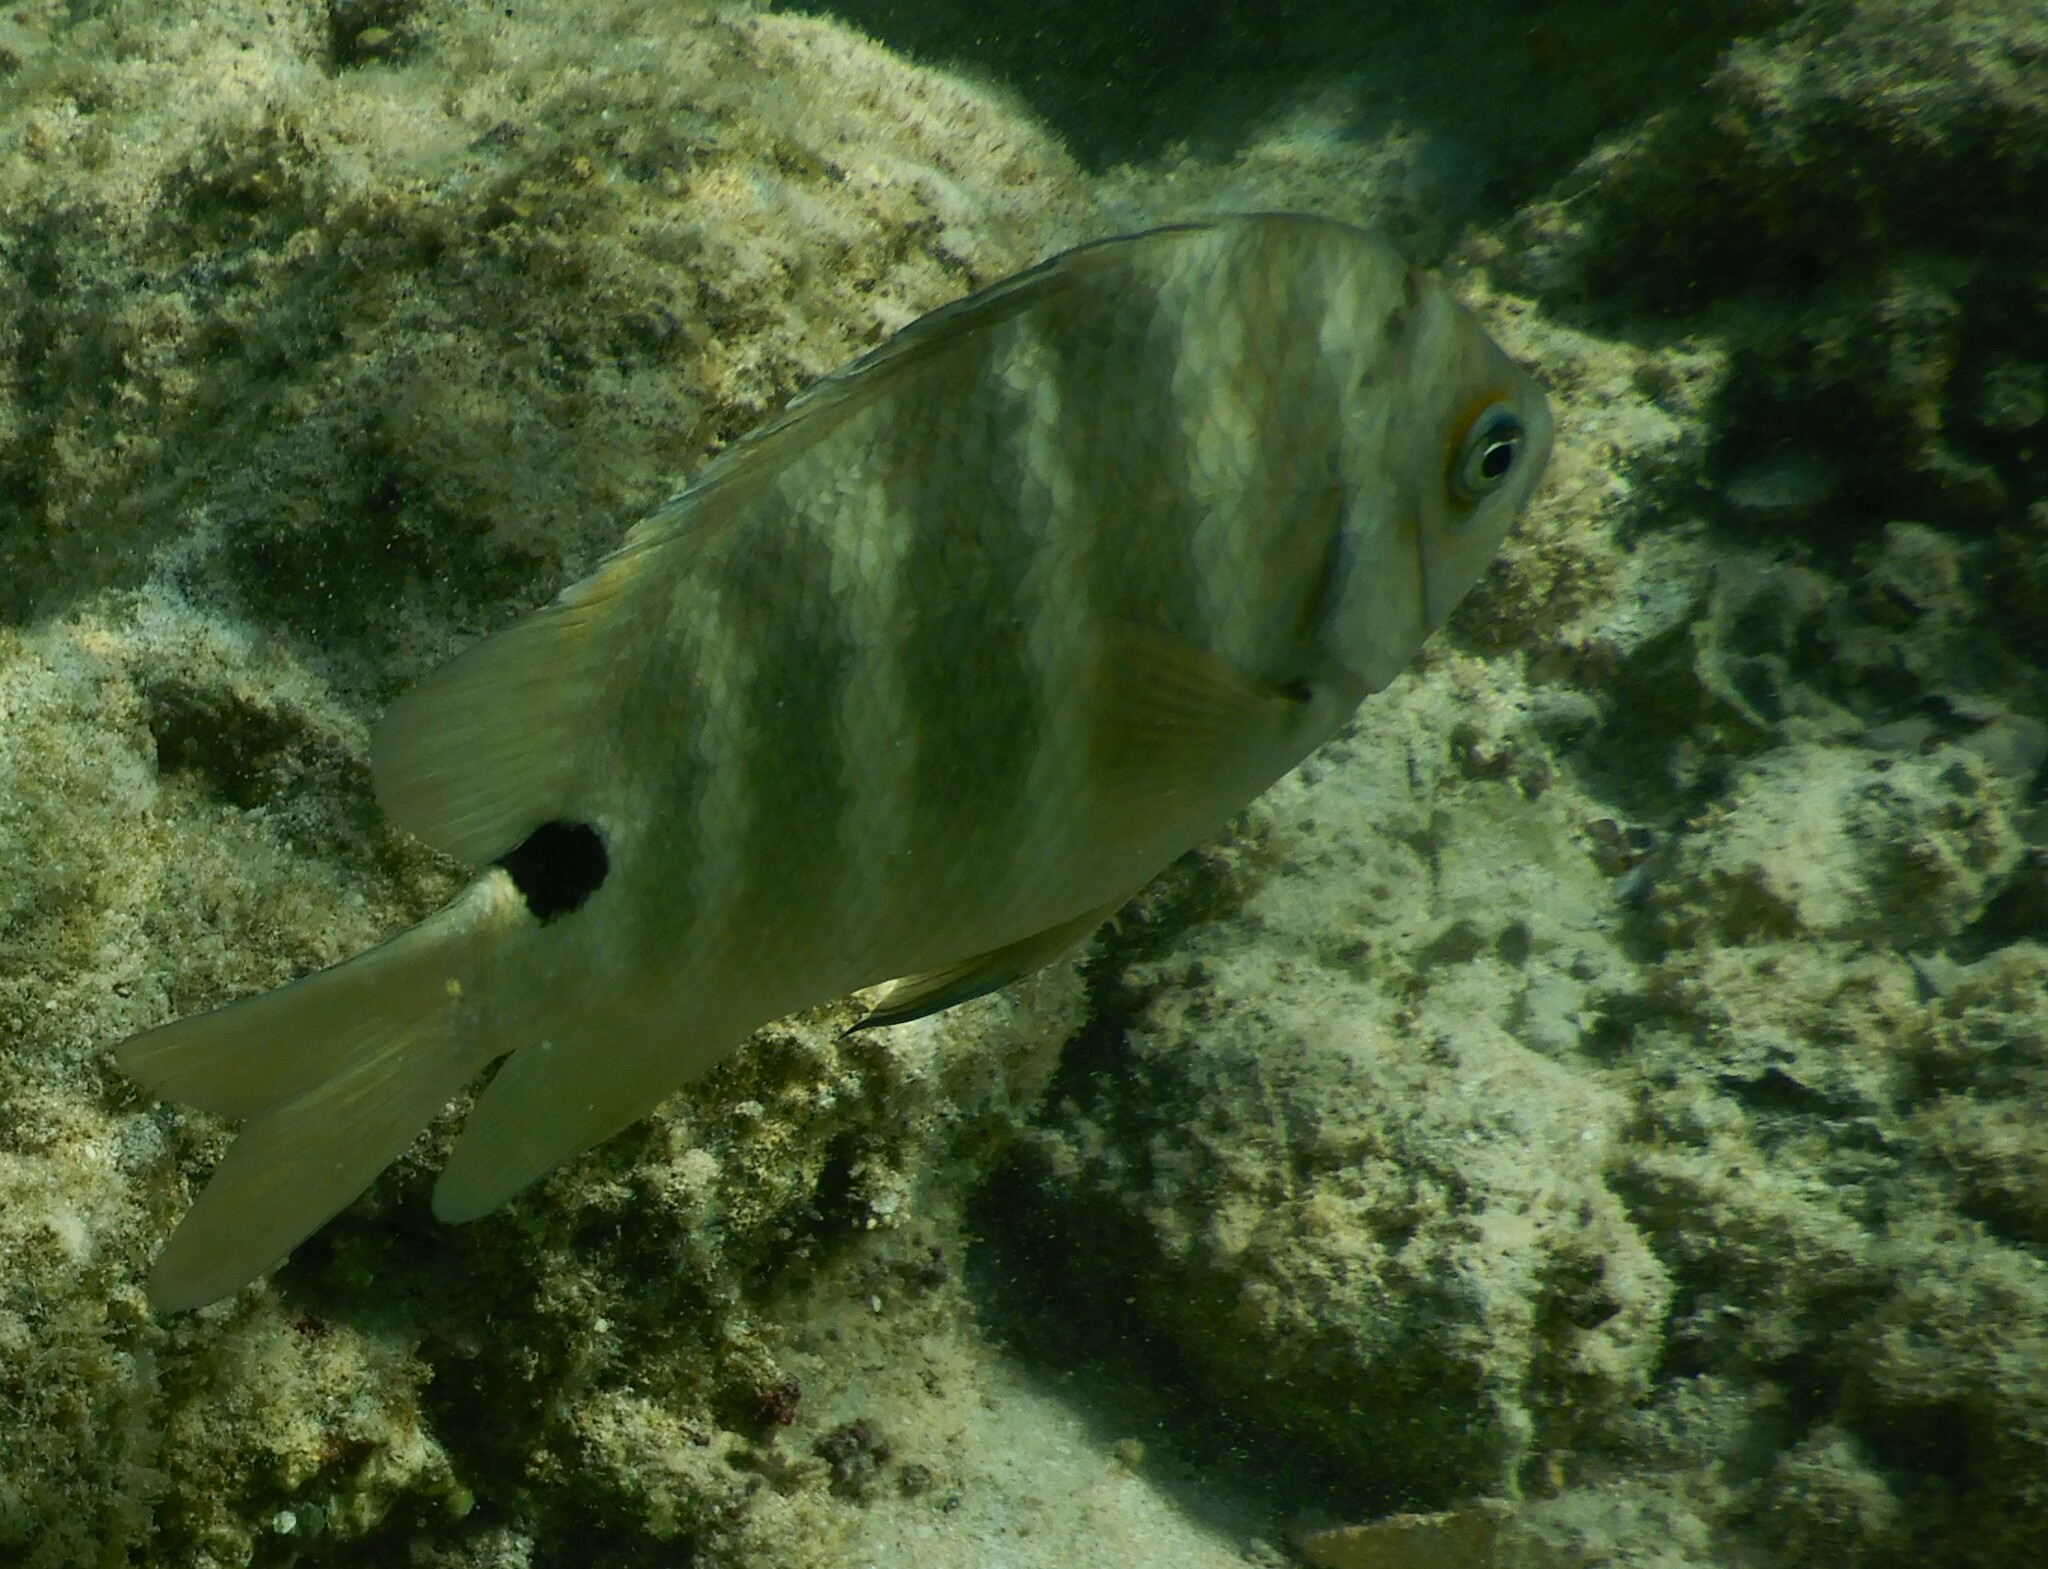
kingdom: Animalia
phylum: Chordata
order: Perciformes
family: Pomacentridae
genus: Abudefduf
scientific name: Abudefduf sordidus
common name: Blackspot sergeant
